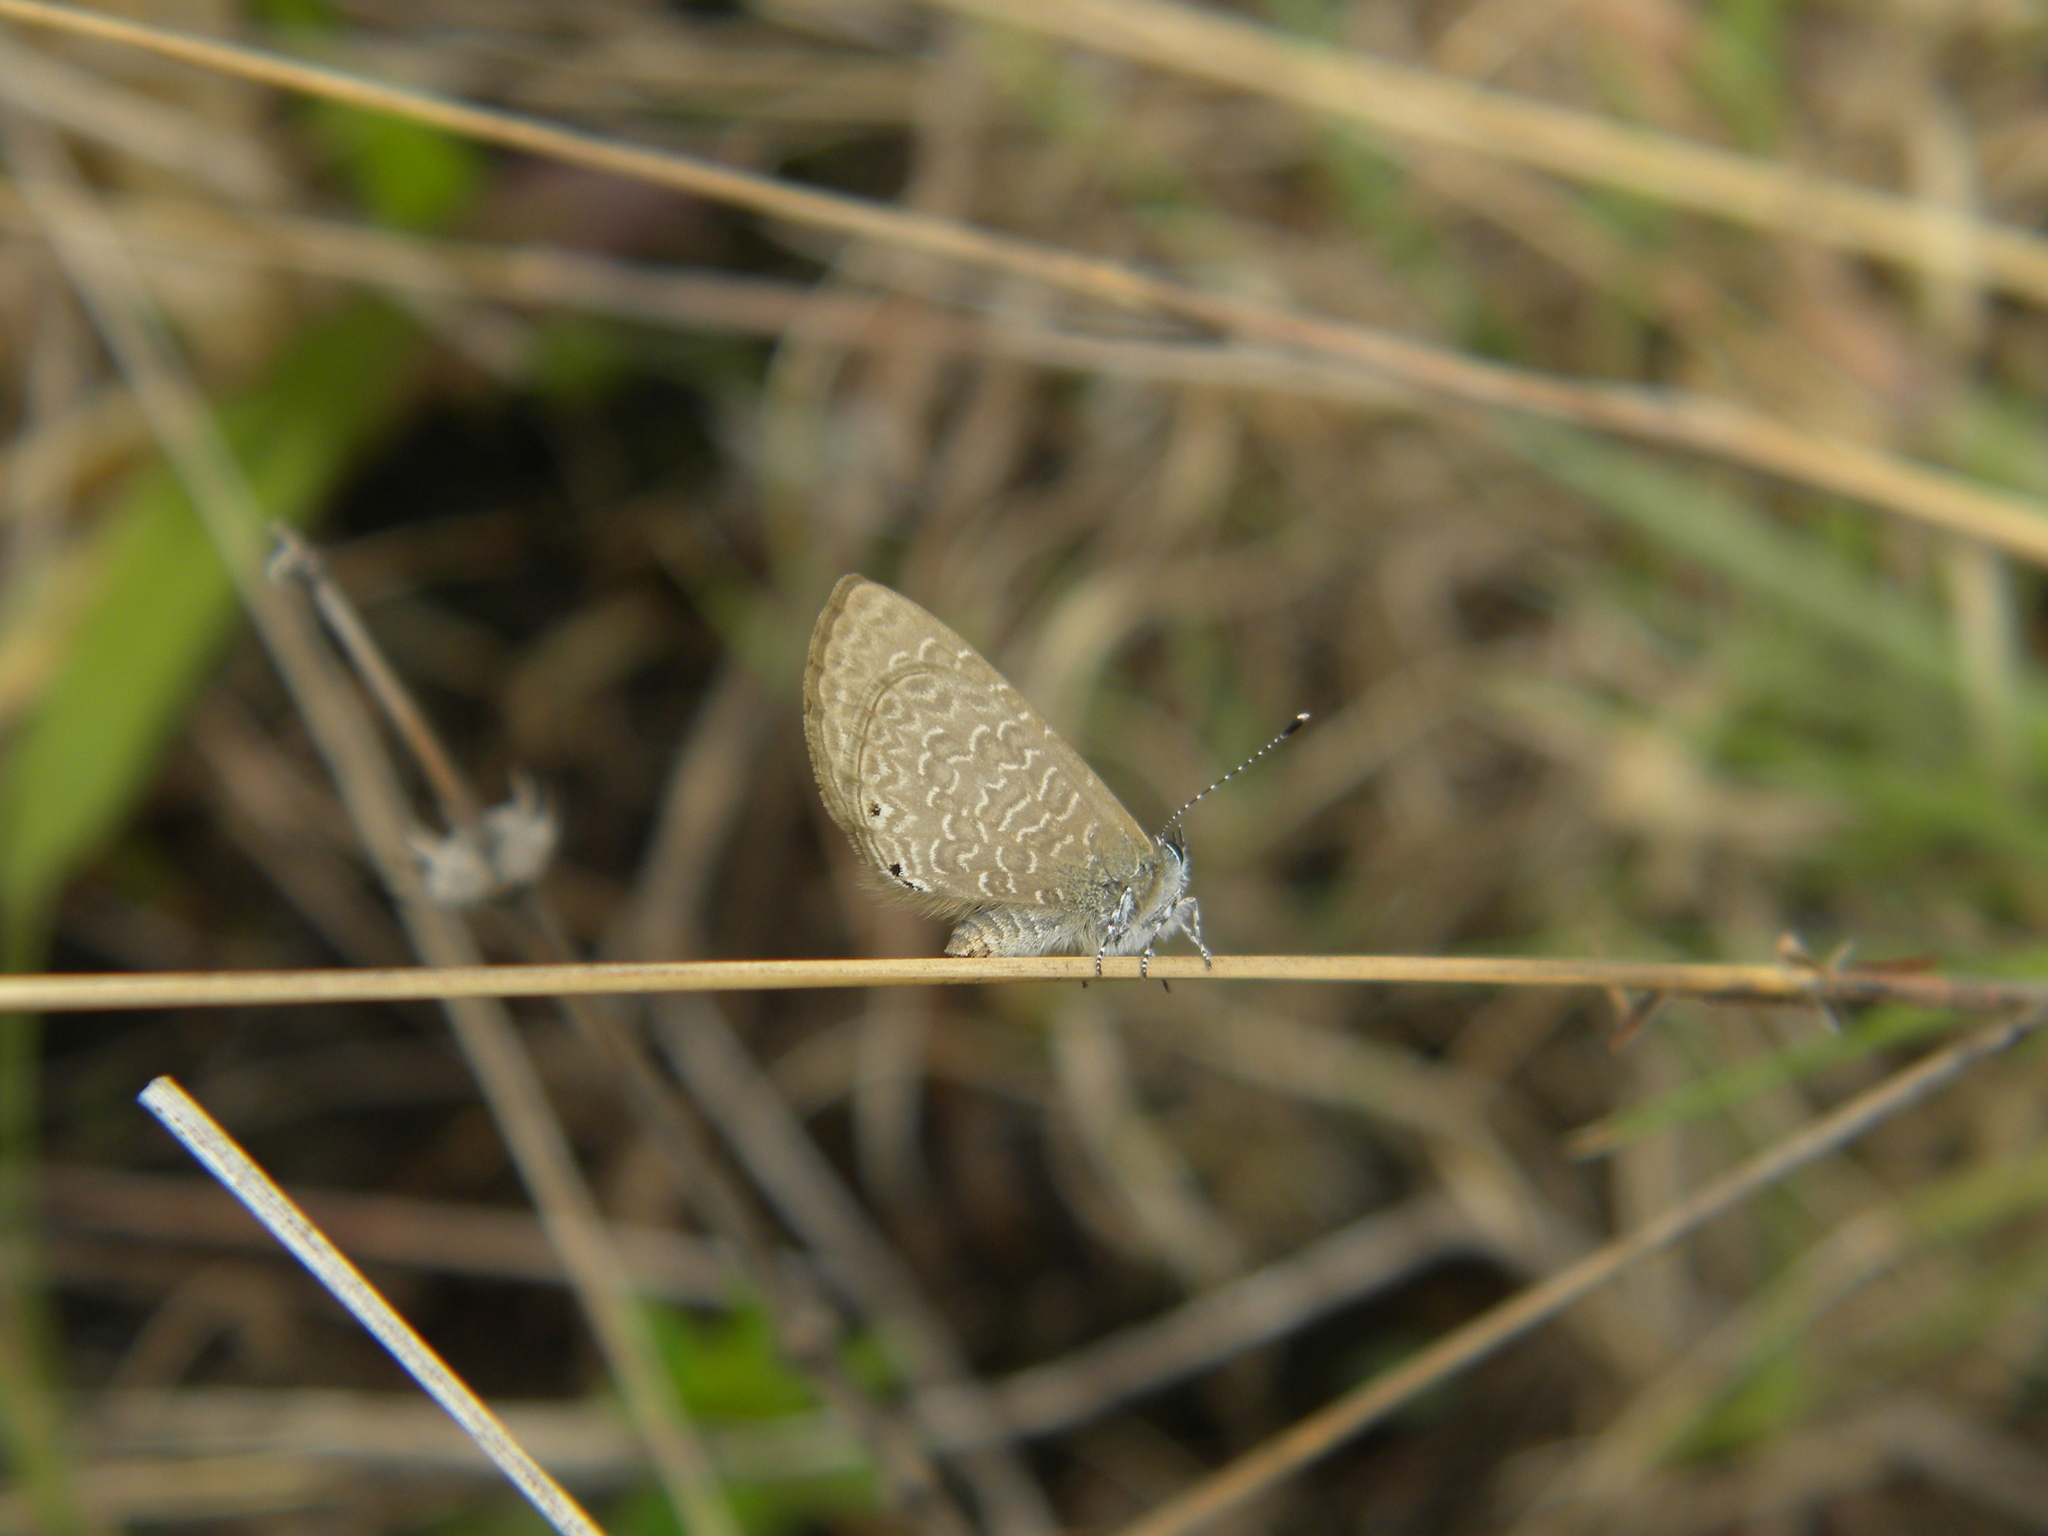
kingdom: Animalia
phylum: Arthropoda
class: Insecta
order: Lepidoptera
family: Lycaenidae
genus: Petrelaea
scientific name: Petrelaea dana
